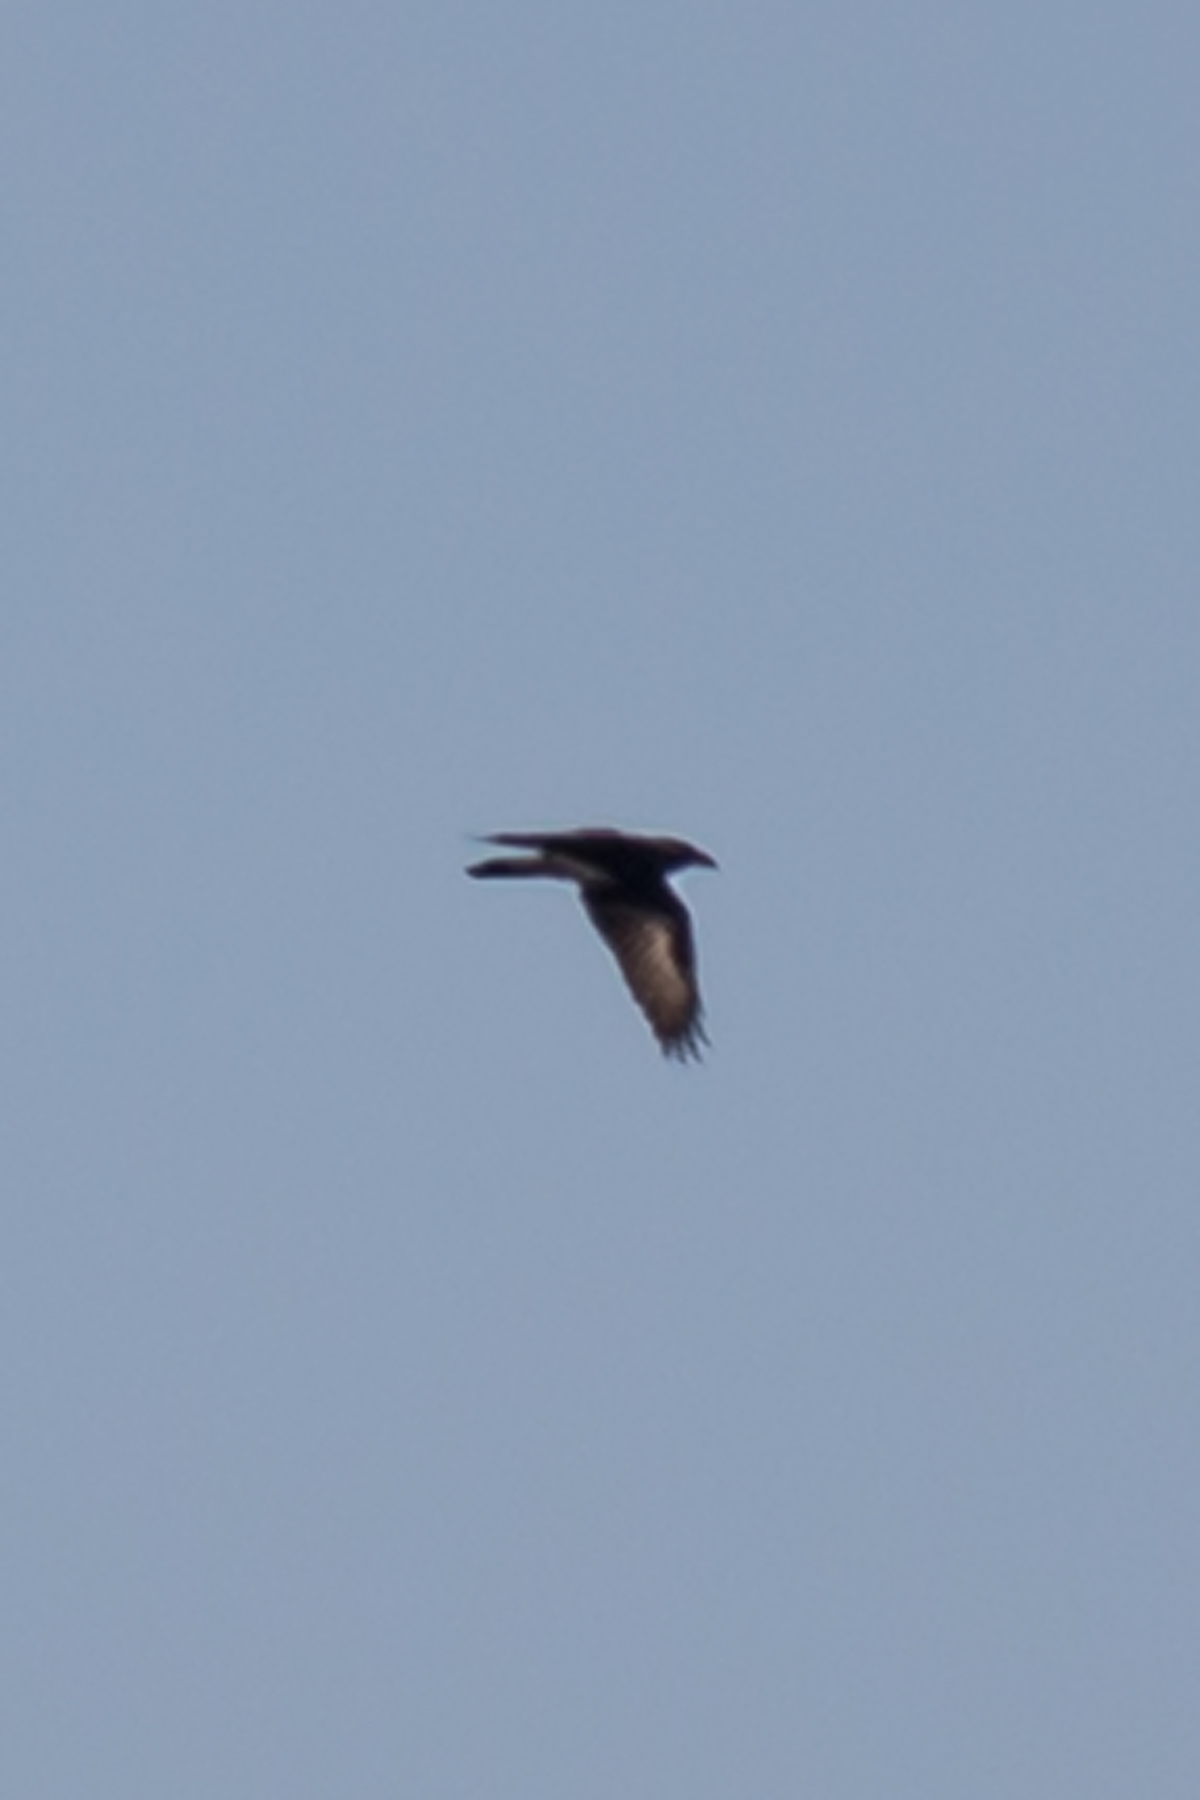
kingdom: Animalia
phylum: Chordata
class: Aves
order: Passeriformes
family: Corvidae
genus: Corvus
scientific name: Corvus corax
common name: Common raven
